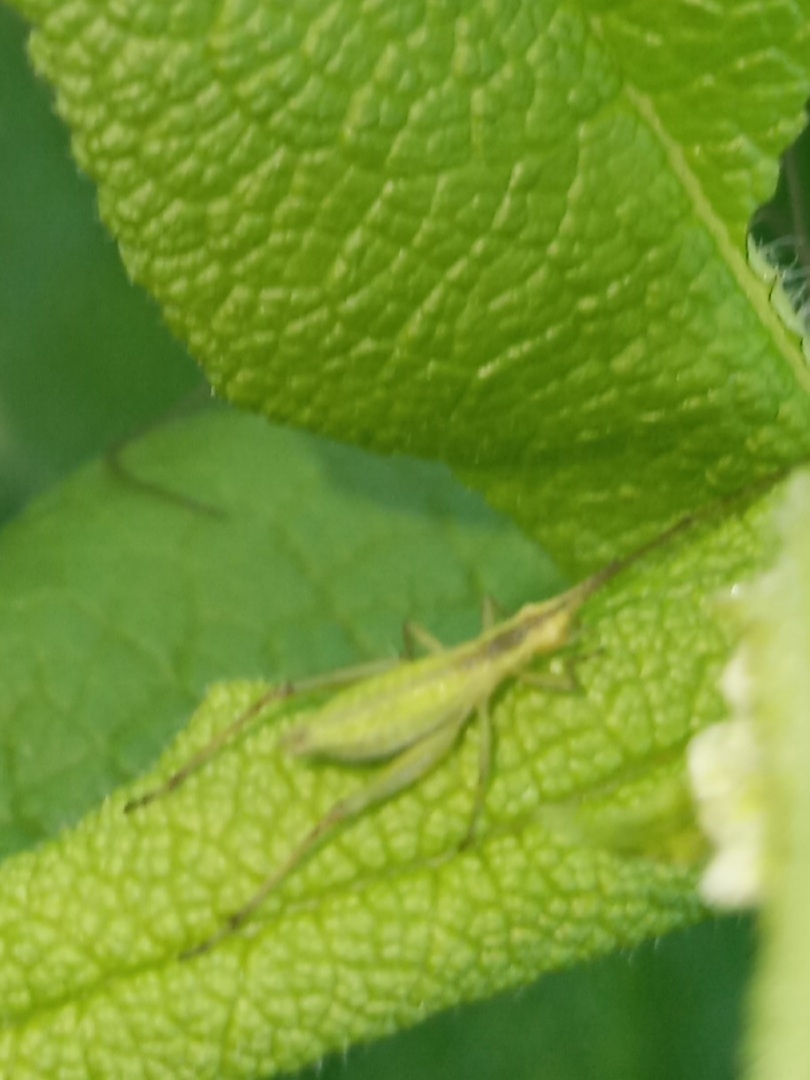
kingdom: Animalia
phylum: Arthropoda
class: Insecta
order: Orthoptera
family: Gryllidae
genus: Oecanthus
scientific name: Oecanthus forbesi
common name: Forbes’s tree cricket
